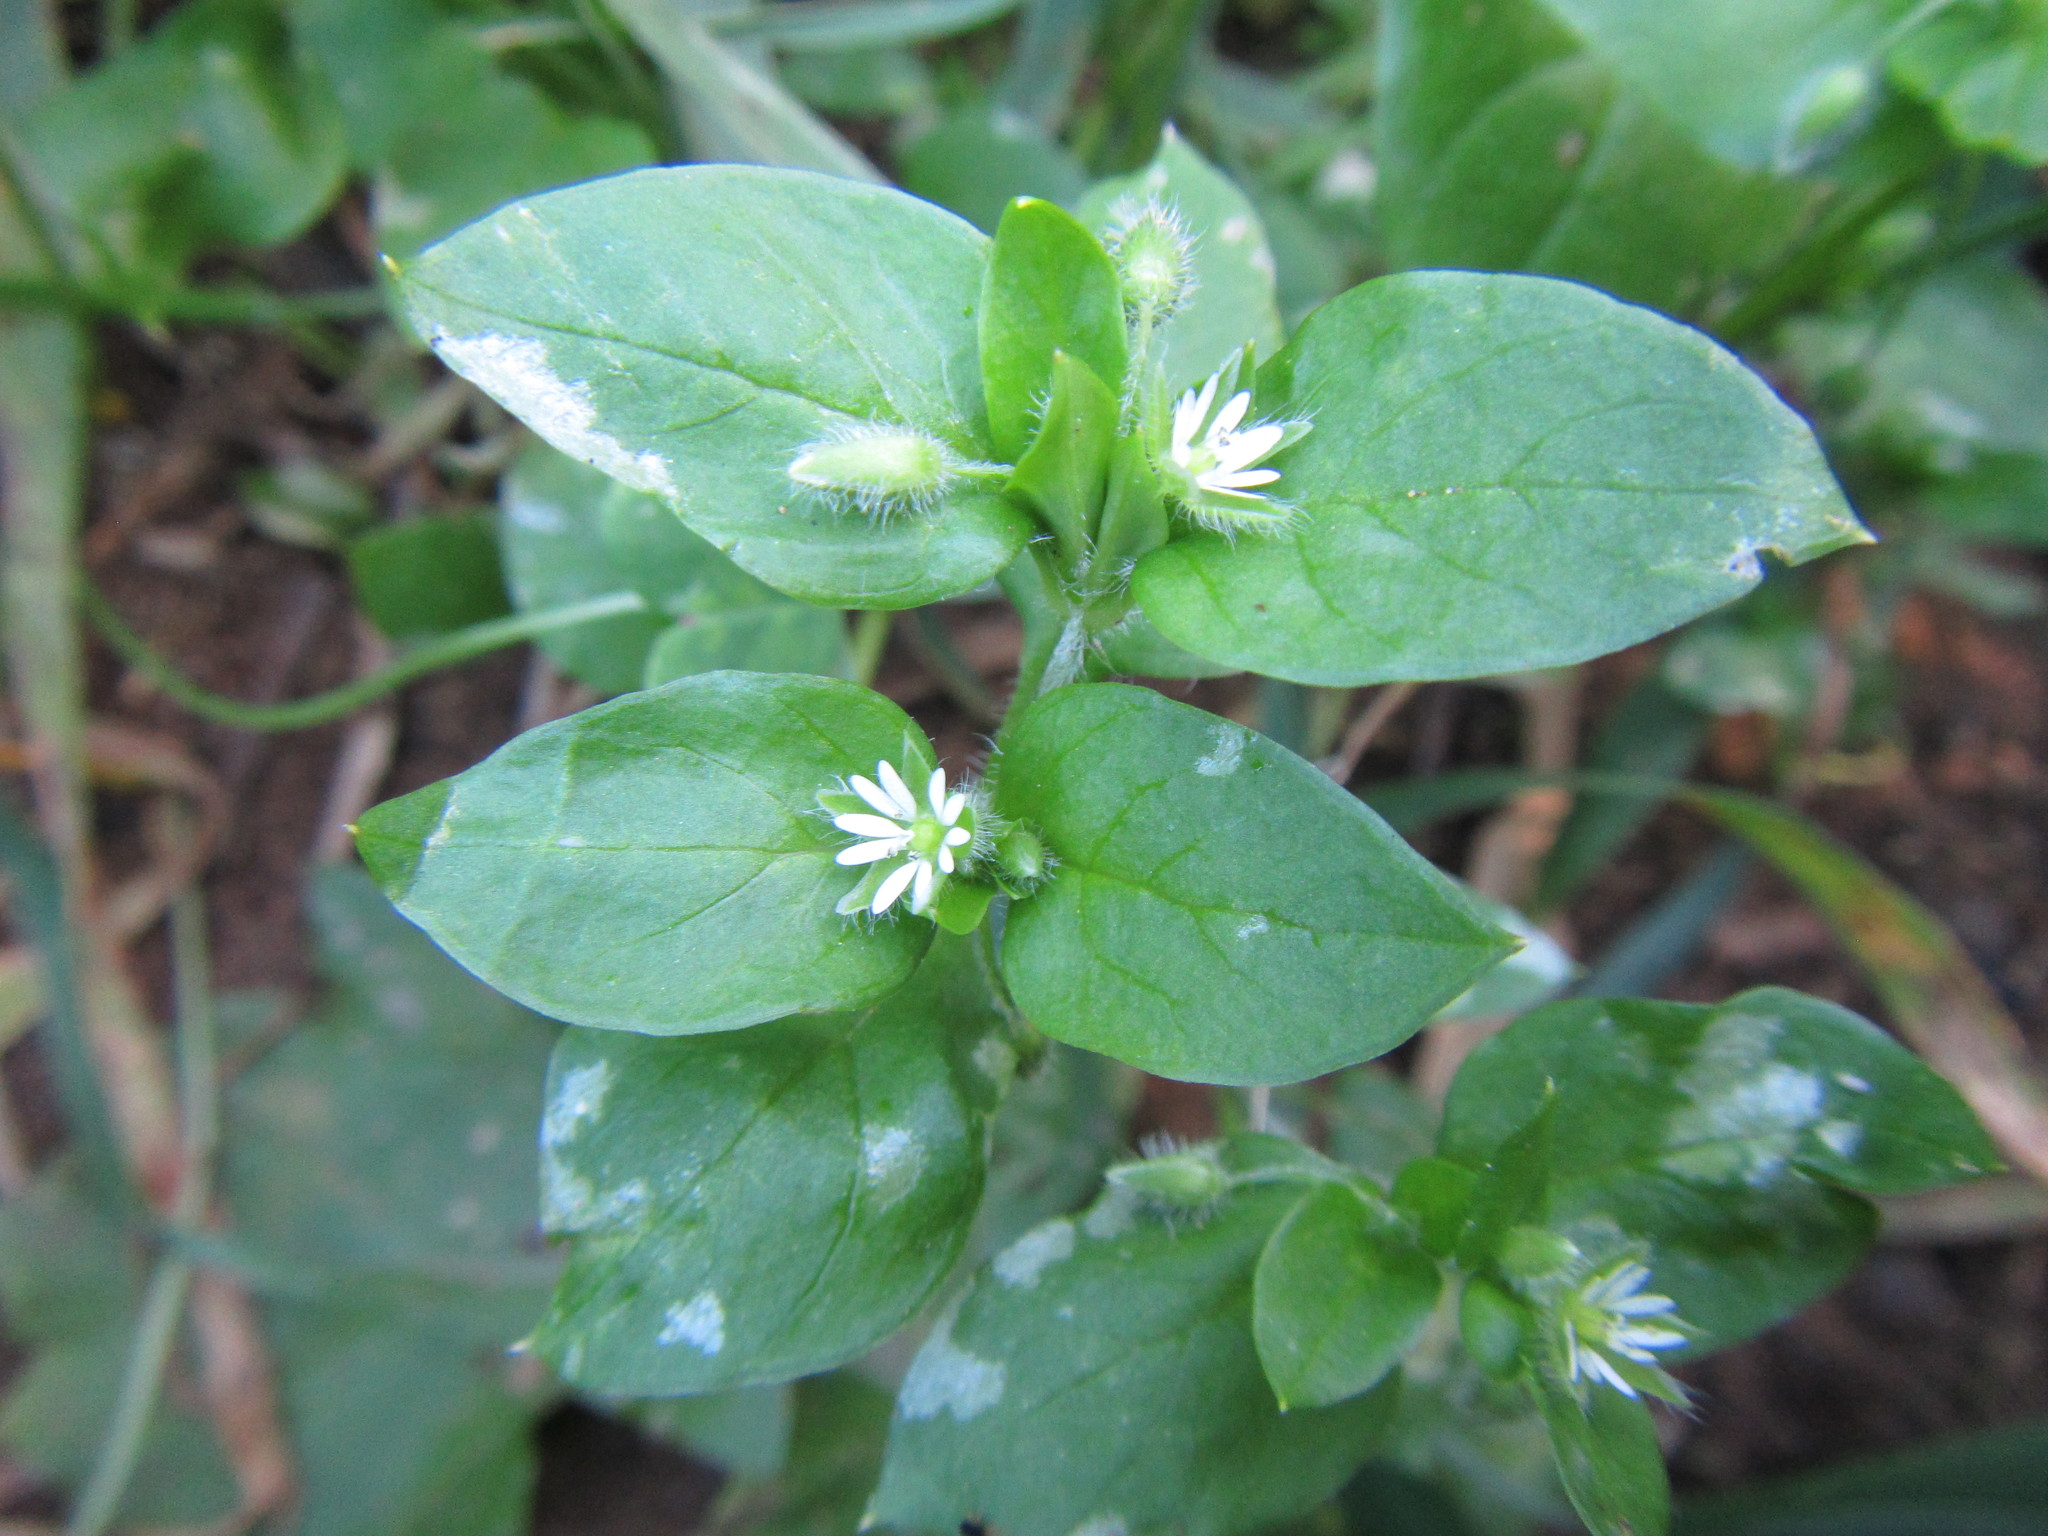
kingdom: Plantae
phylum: Tracheophyta
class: Magnoliopsida
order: Caryophyllales
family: Caryophyllaceae
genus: Stellaria
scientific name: Stellaria media
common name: Common chickweed
